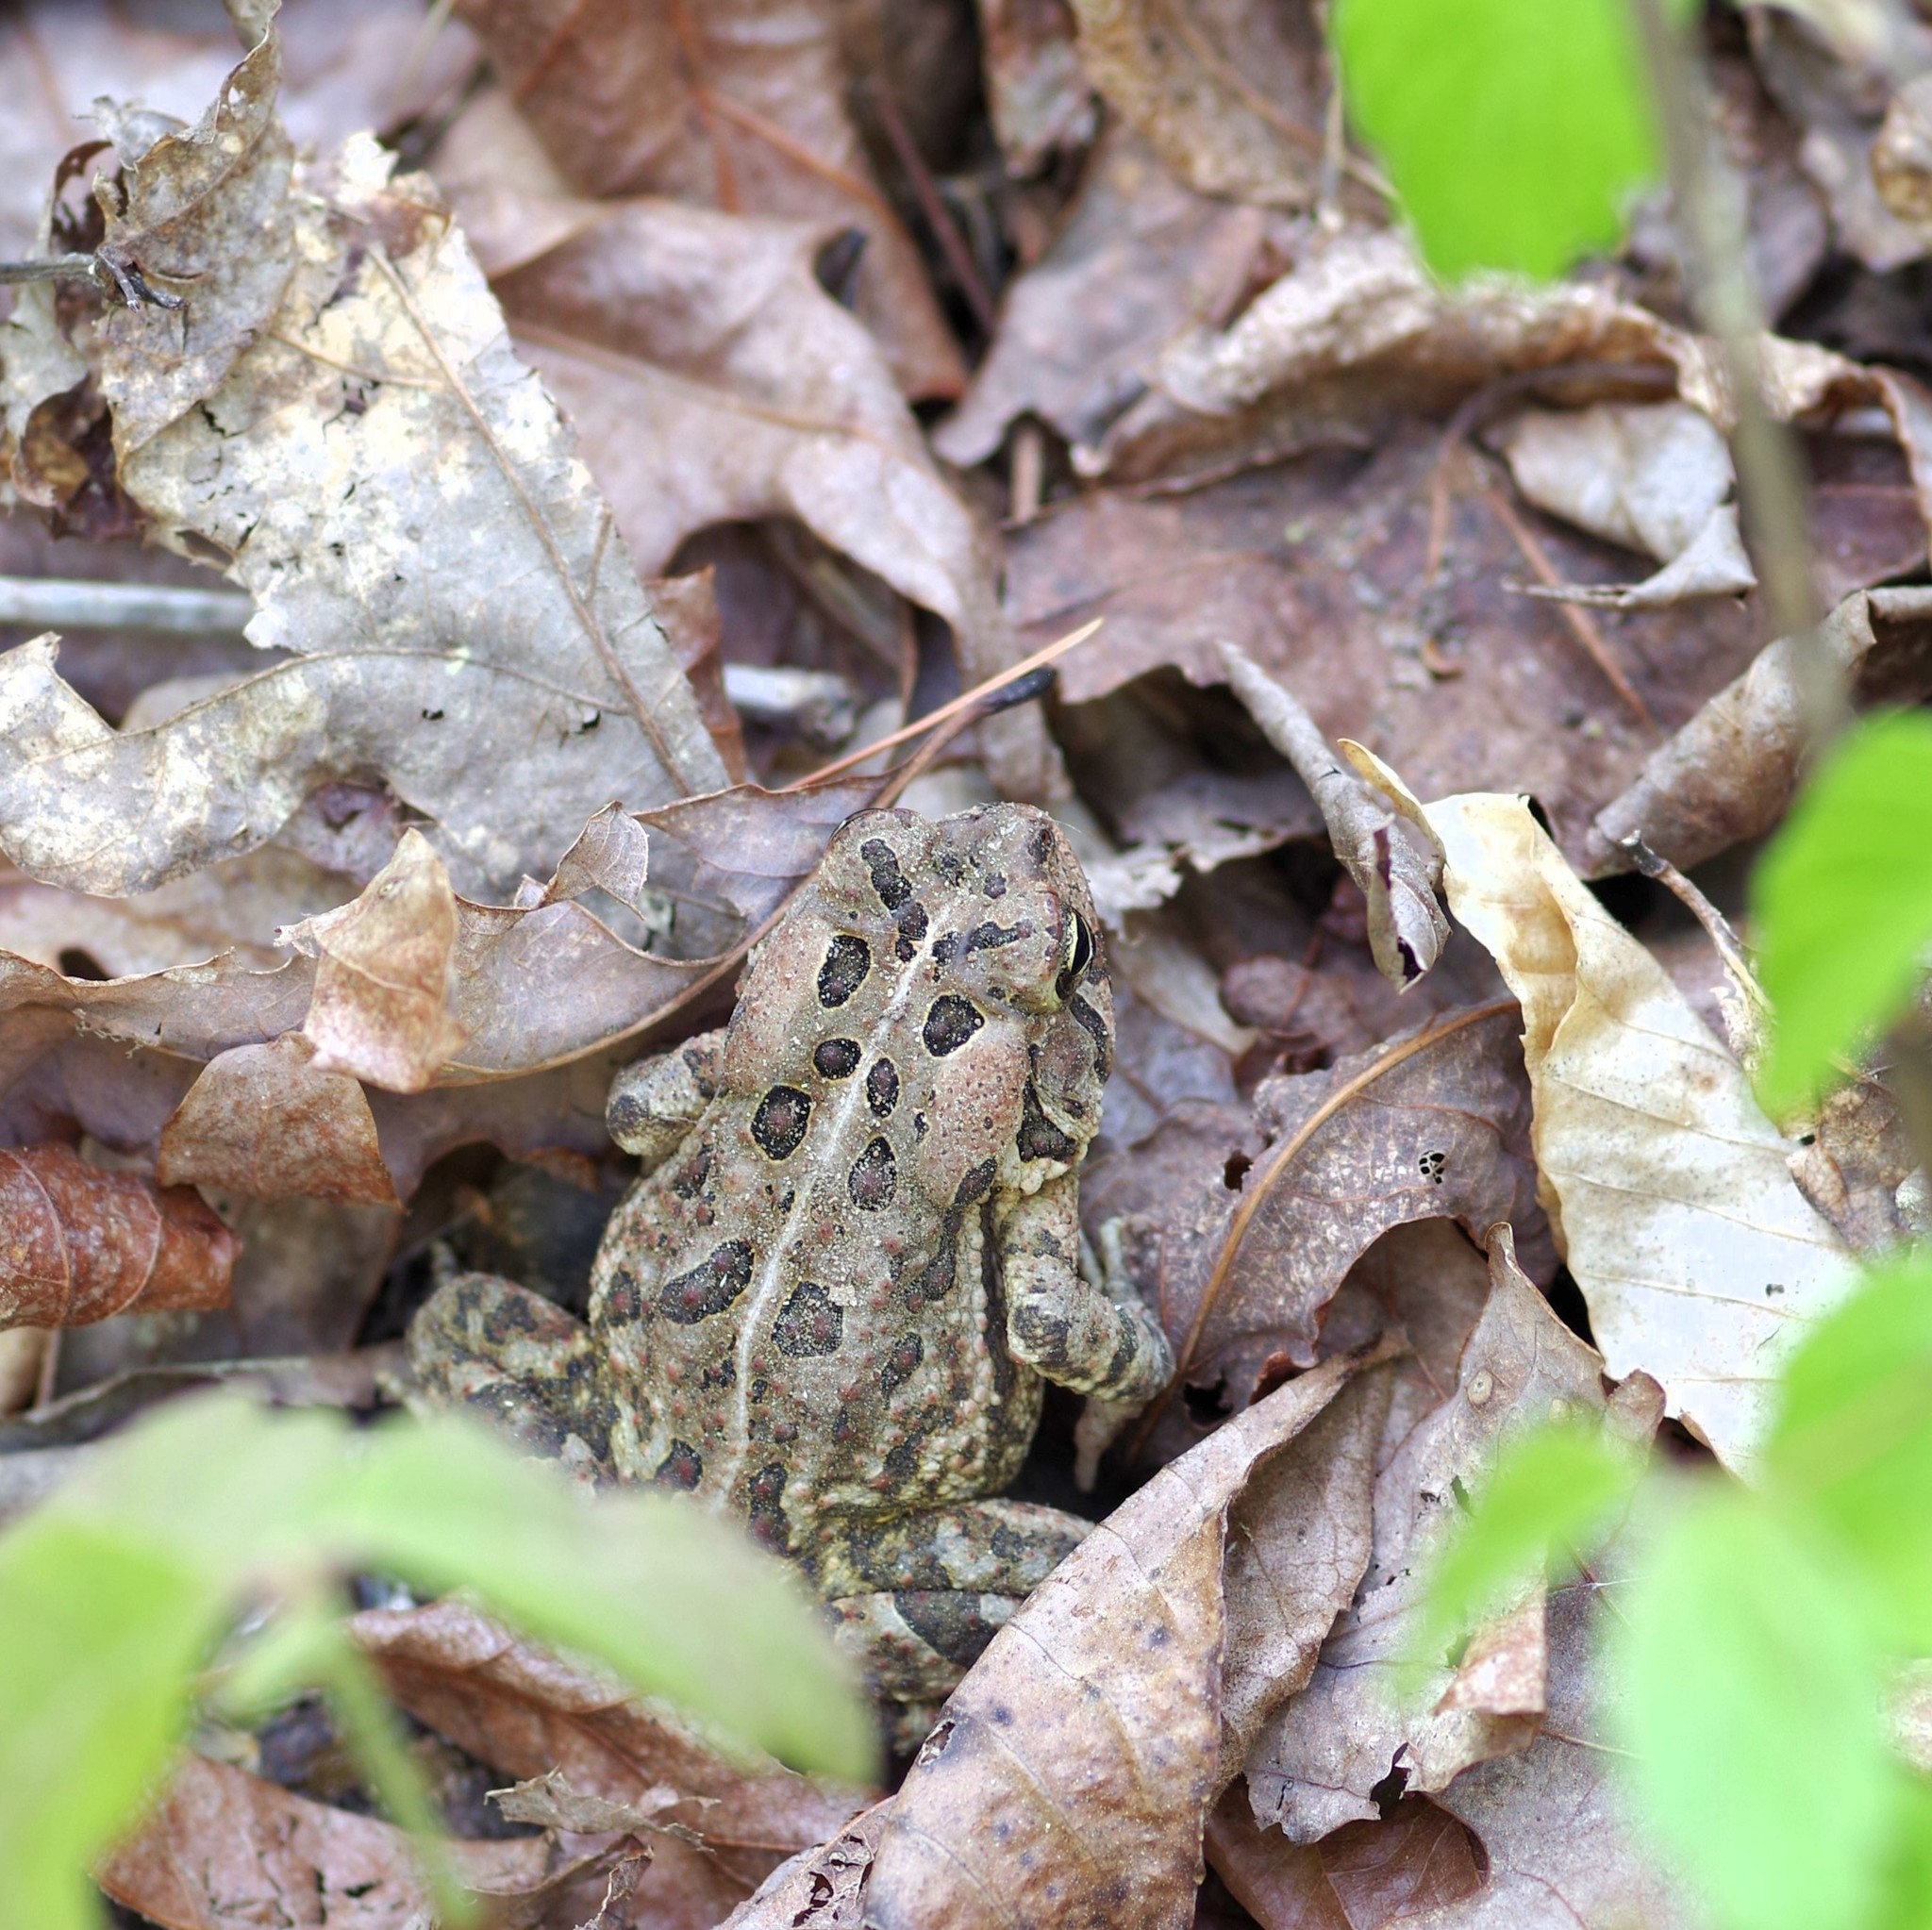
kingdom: Animalia
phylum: Chordata
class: Amphibia
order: Anura
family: Bufonidae
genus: Anaxyrus
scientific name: Anaxyrus fowleri
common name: Fowler's toad
